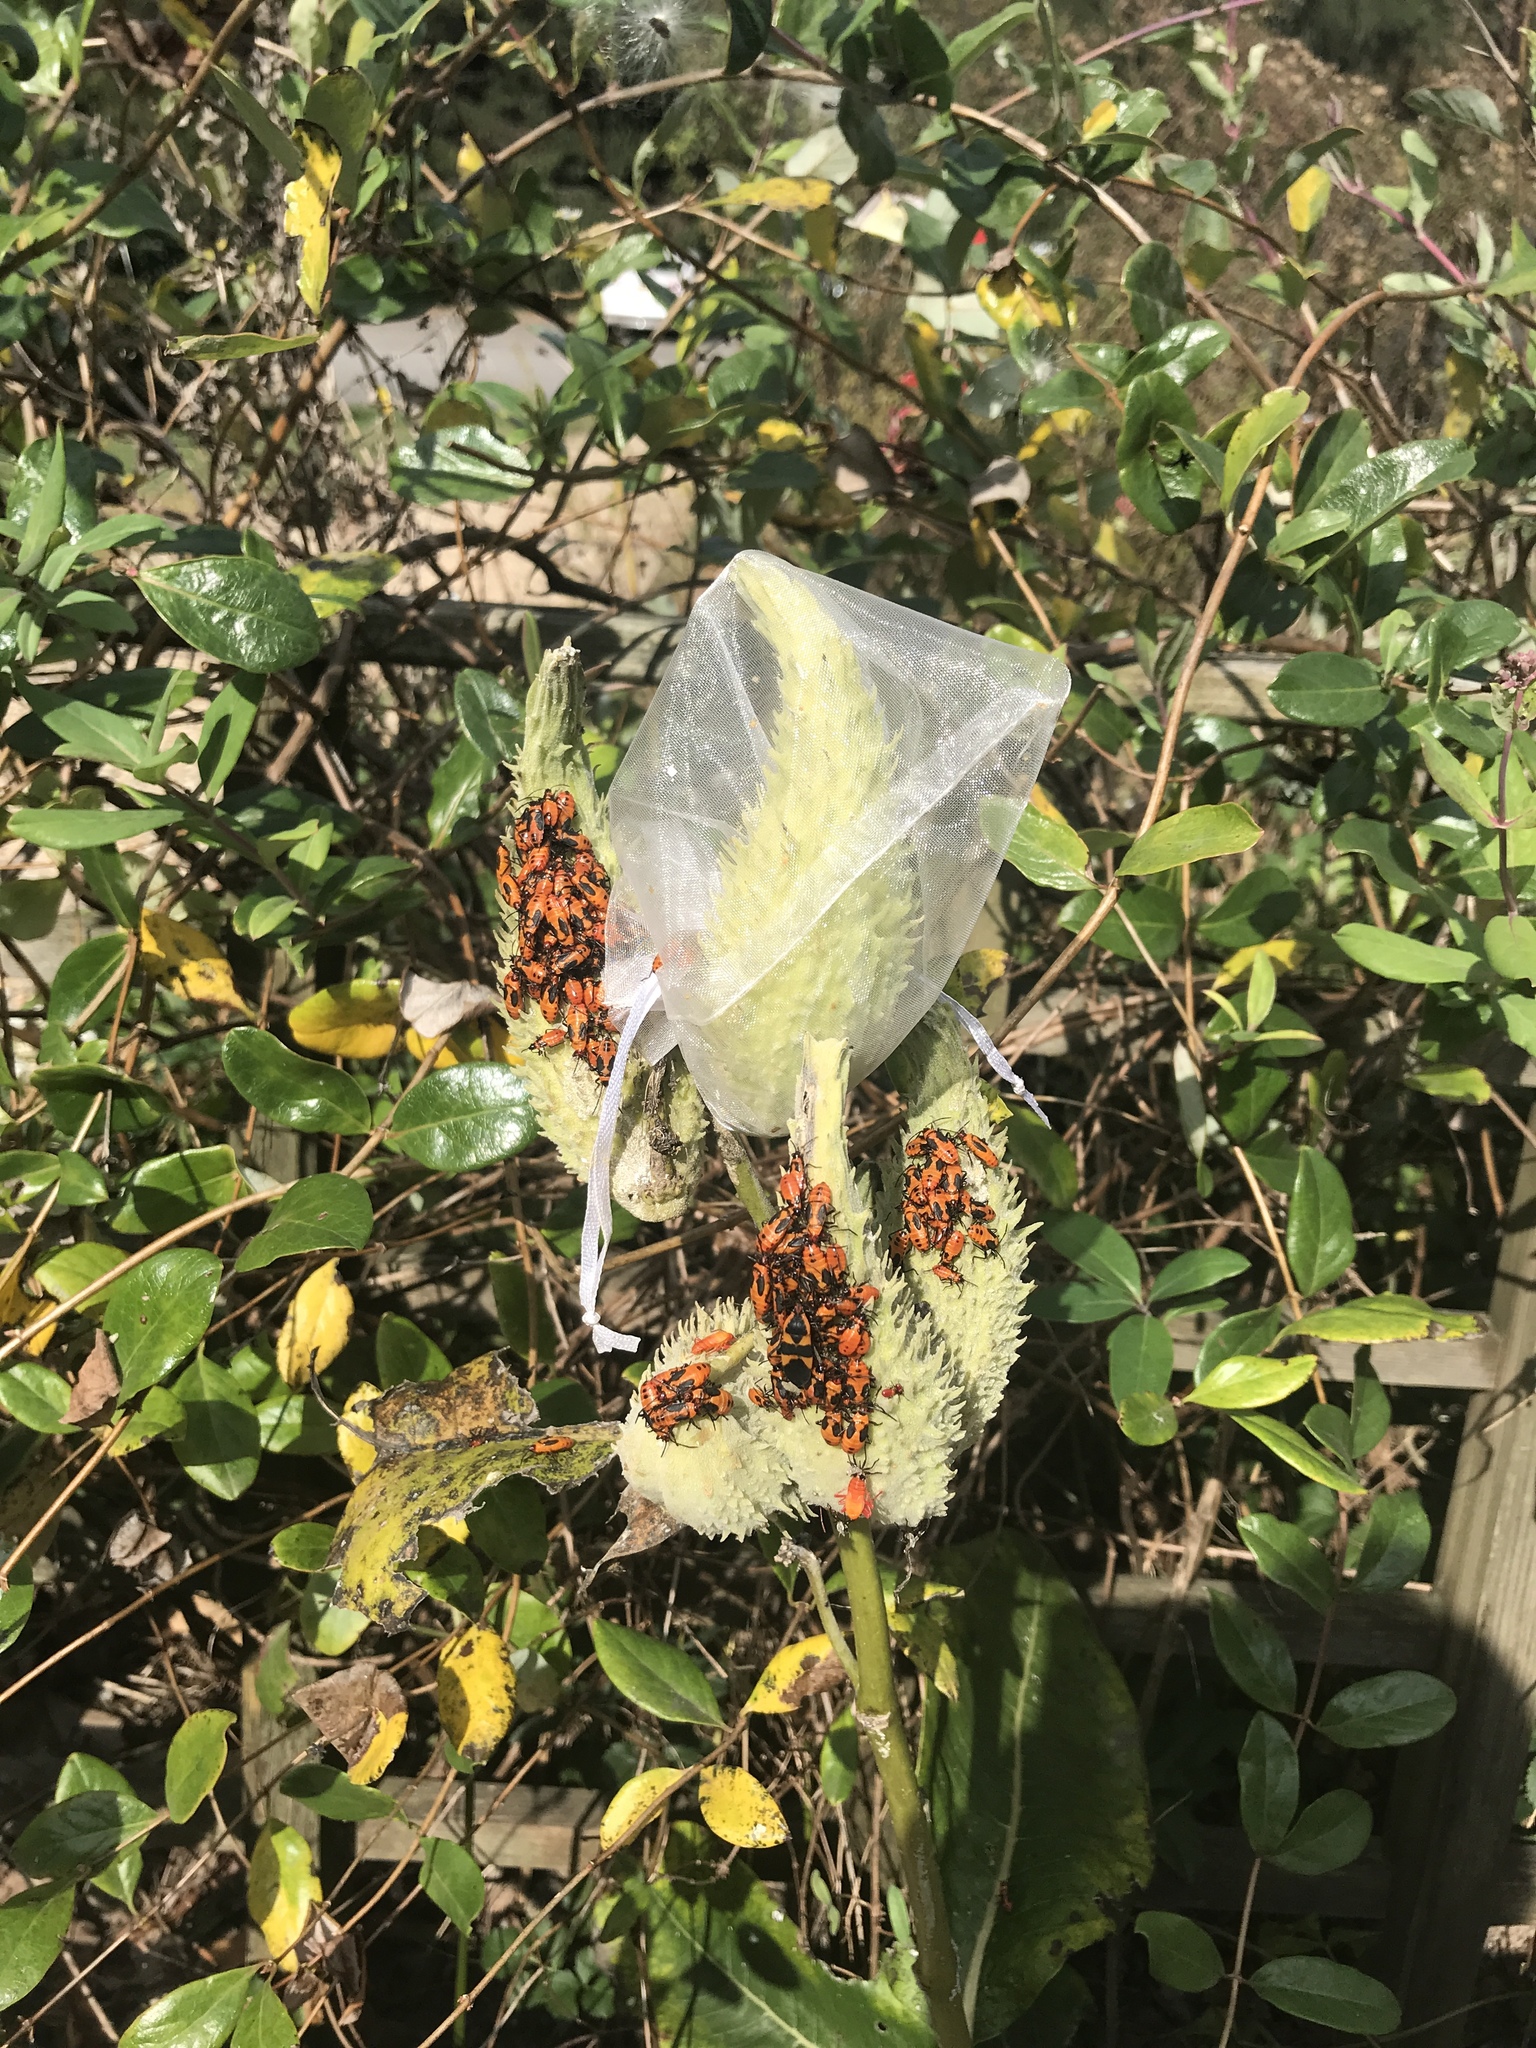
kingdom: Animalia
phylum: Arthropoda
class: Insecta
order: Hemiptera
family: Lygaeidae
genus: Oncopeltus
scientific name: Oncopeltus fasciatus
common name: Large milkweed bug
